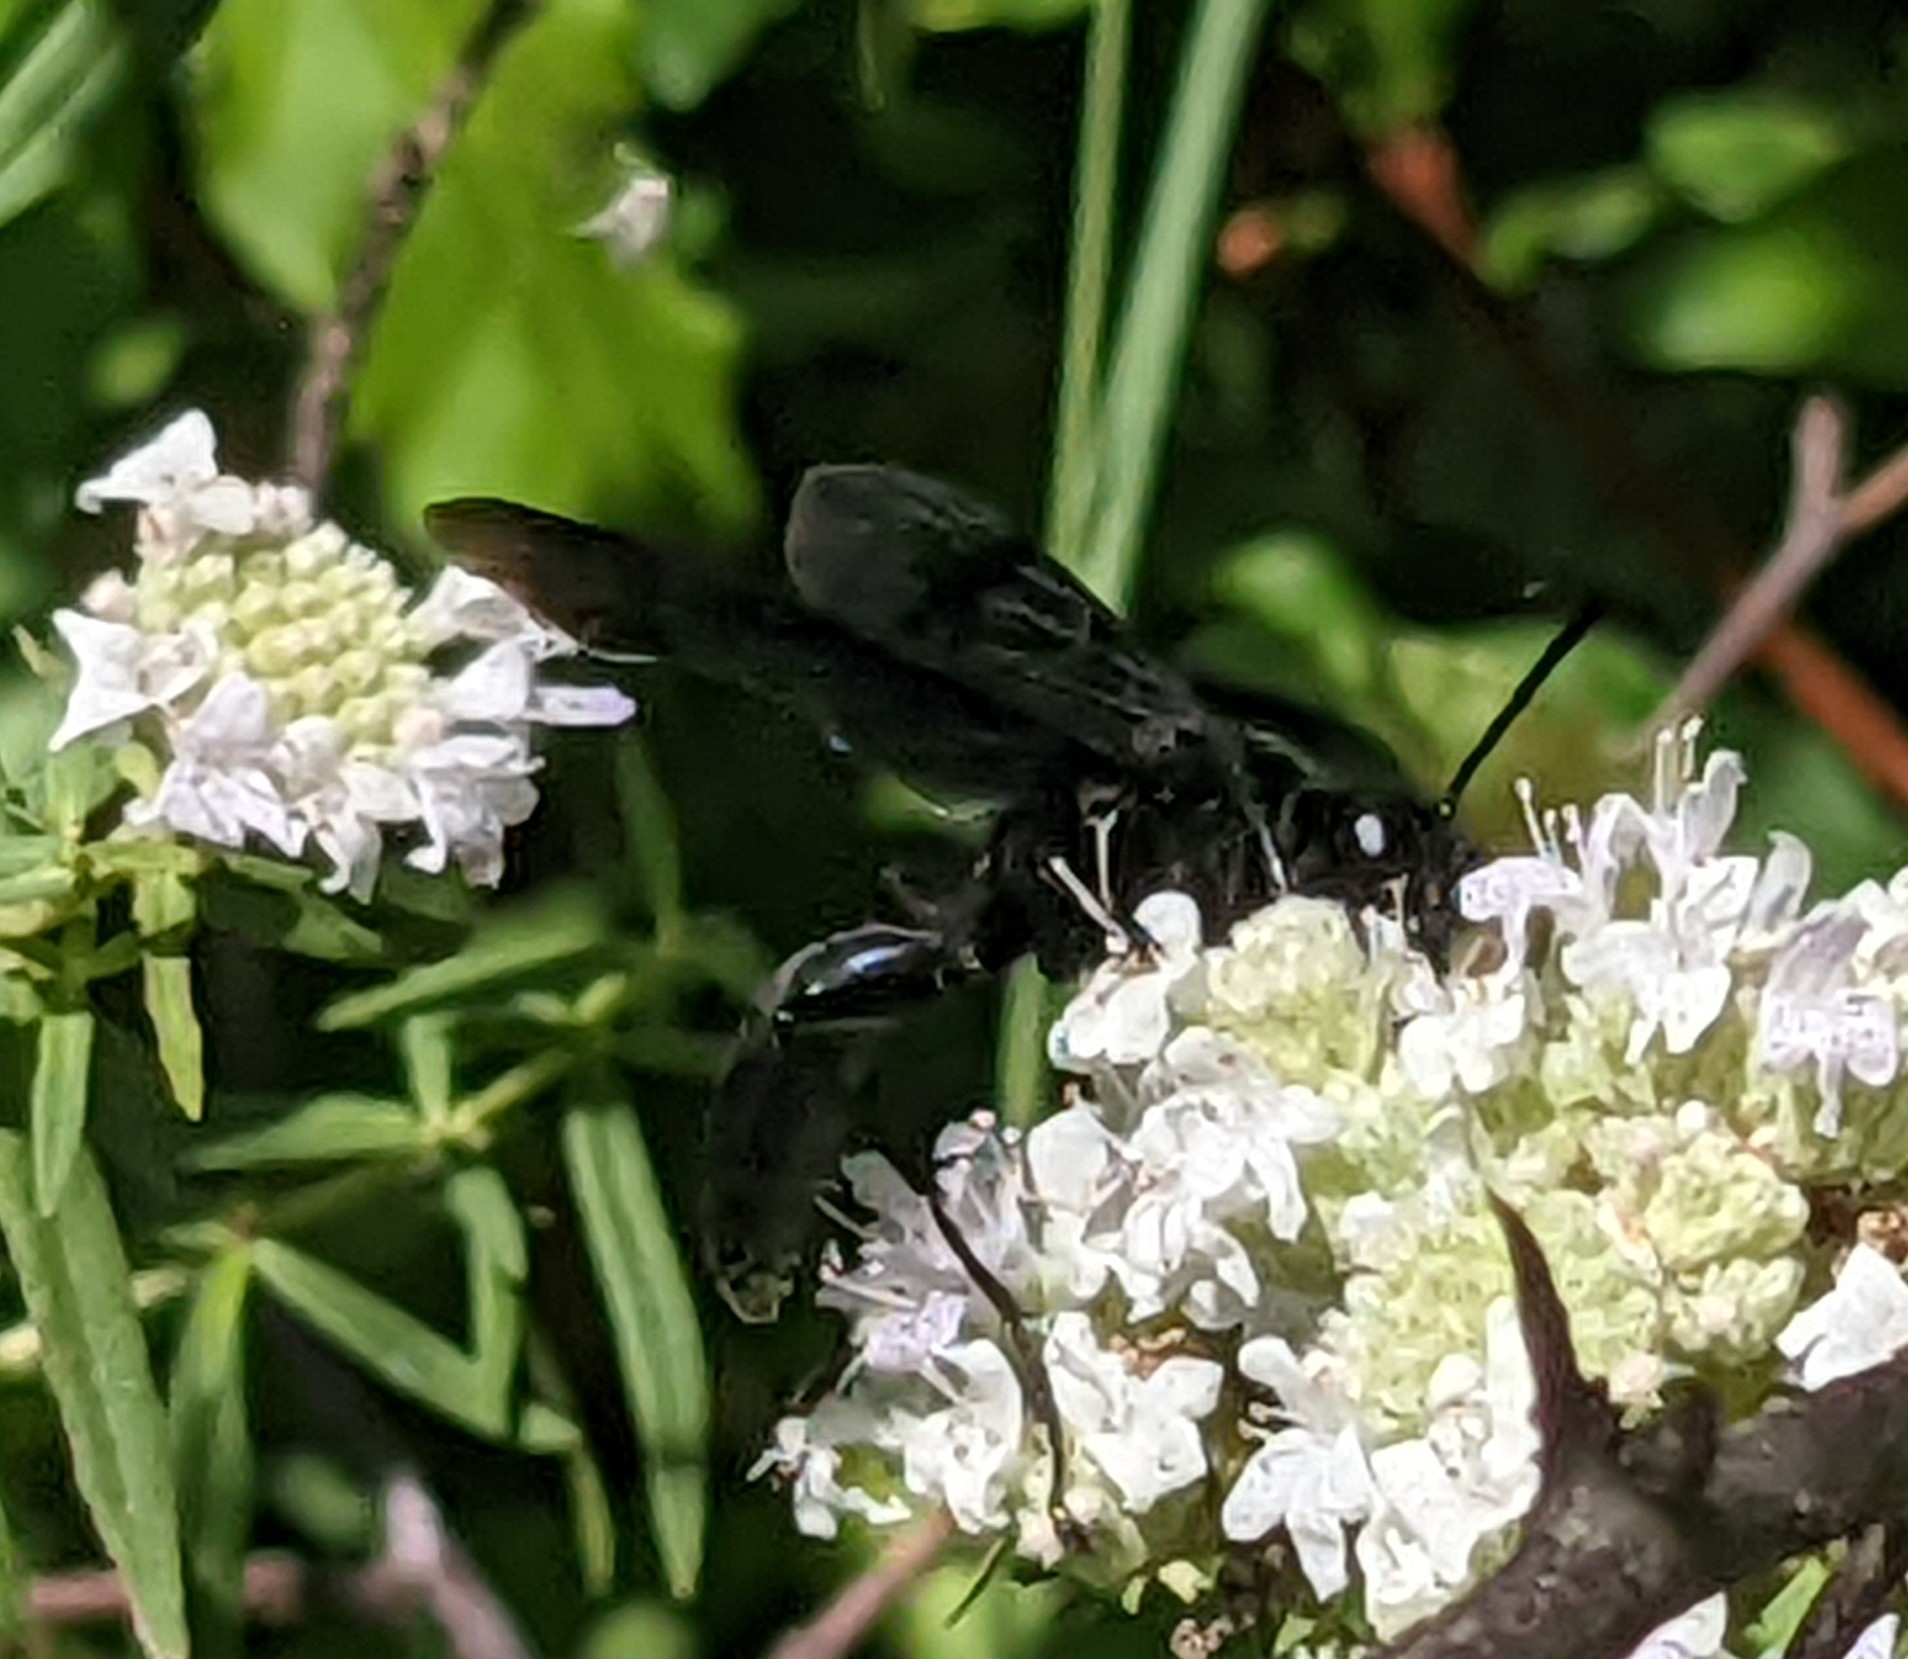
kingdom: Animalia
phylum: Arthropoda
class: Insecta
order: Hymenoptera
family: Sphecidae
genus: Sphex
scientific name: Sphex pensylvanicus
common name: Great black digger wasp
